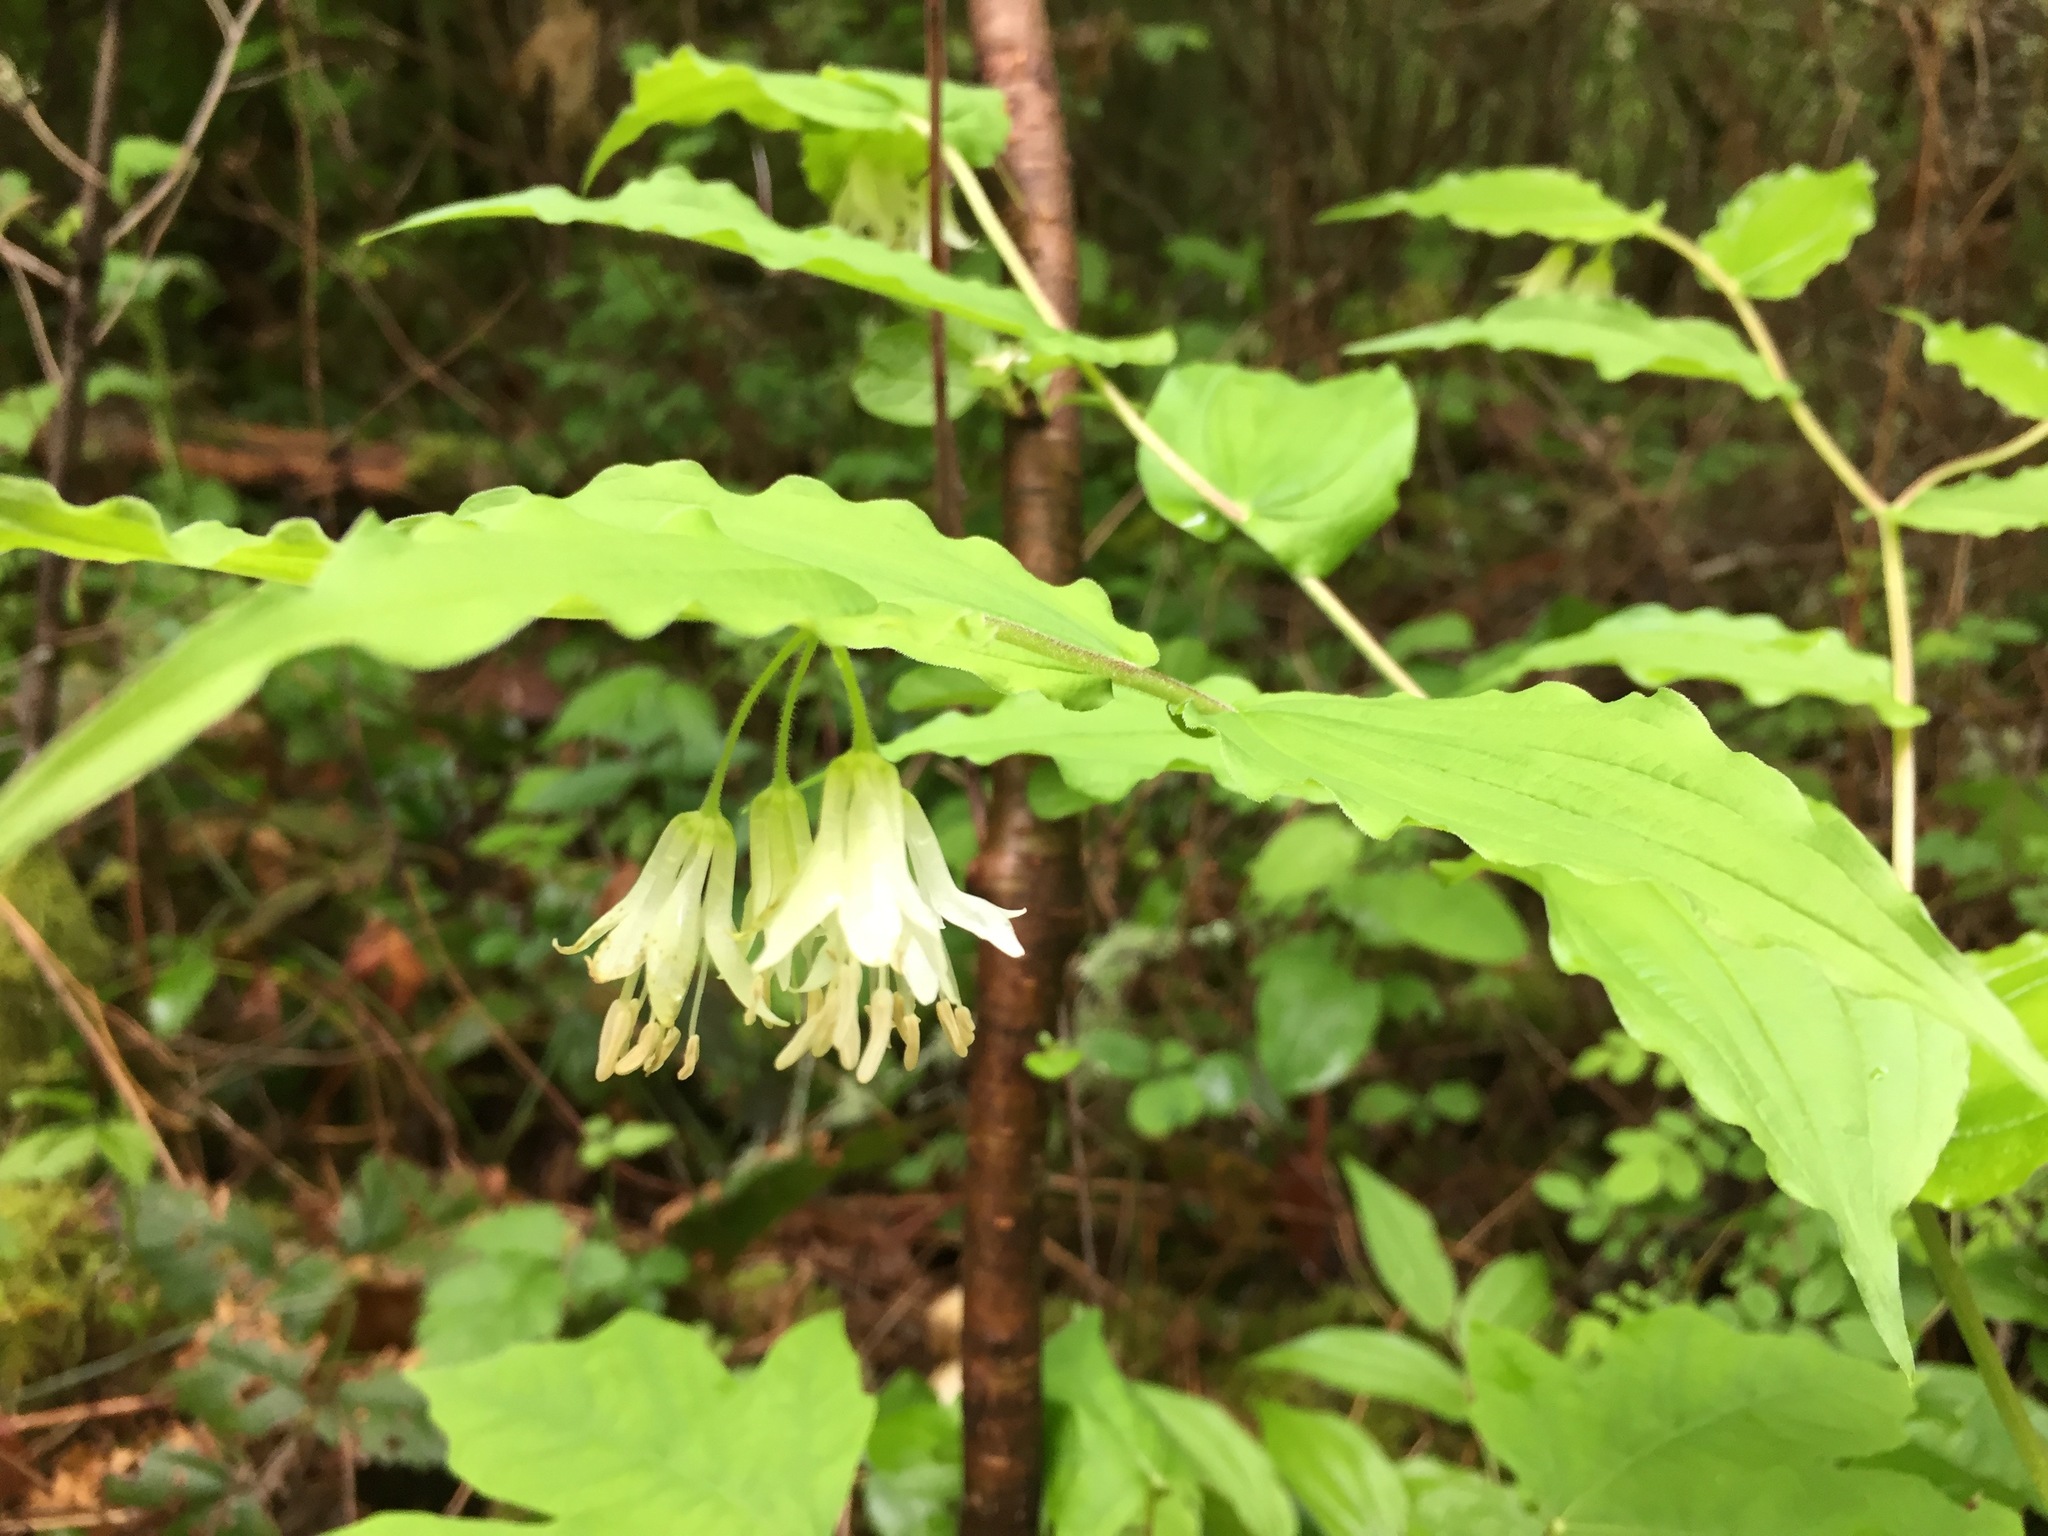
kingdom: Plantae
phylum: Tracheophyta
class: Liliopsida
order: Liliales
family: Liliaceae
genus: Prosartes
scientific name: Prosartes hookeri
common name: Fairy-bells
